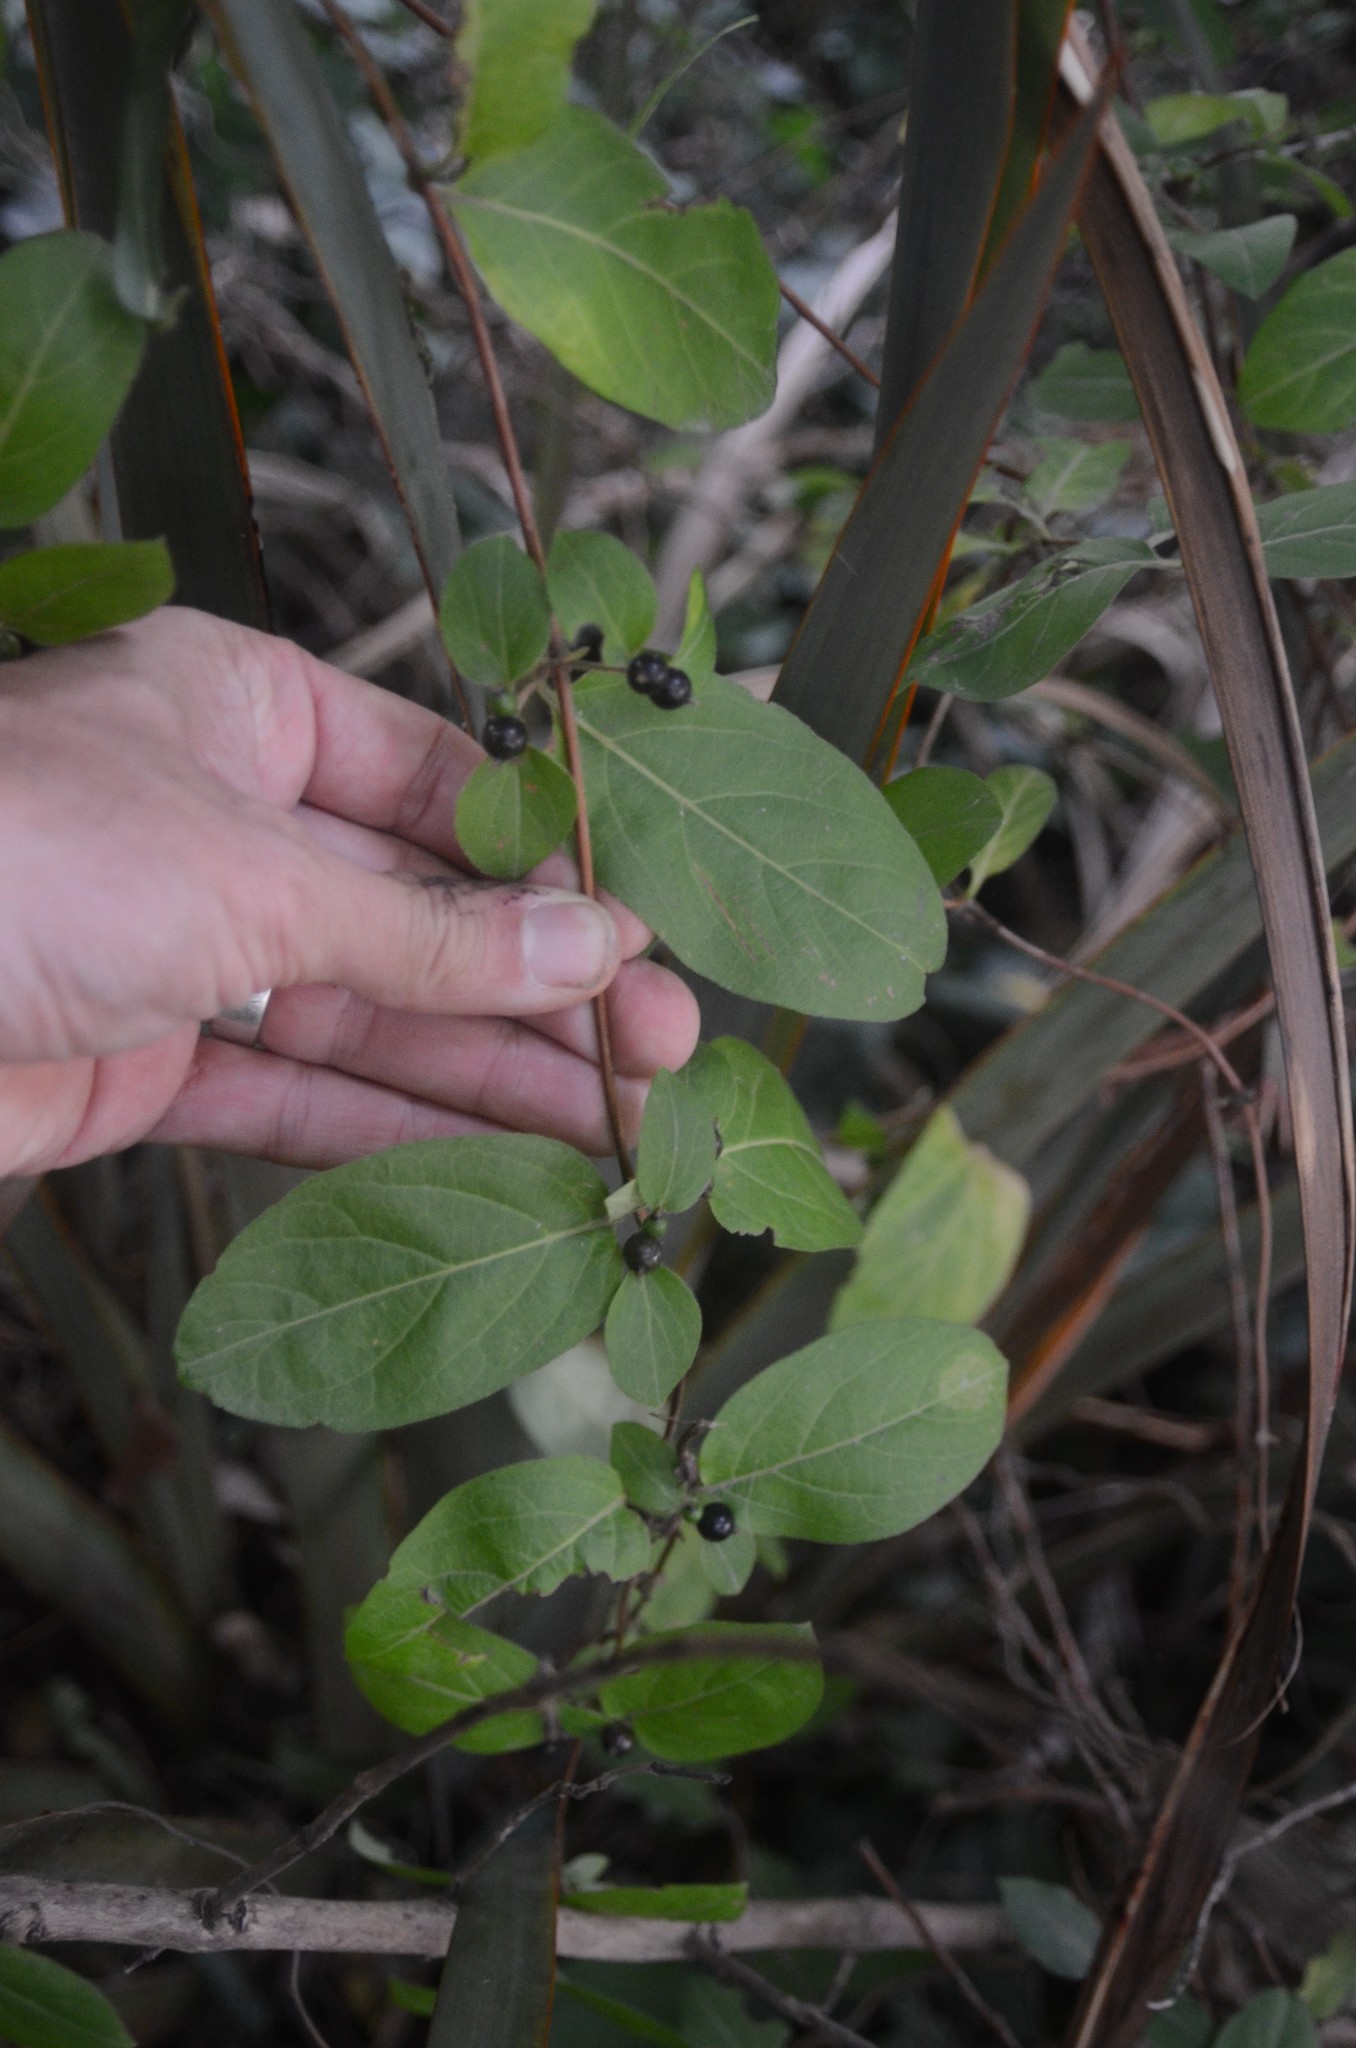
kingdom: Plantae
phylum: Tracheophyta
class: Magnoliopsida
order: Dipsacales
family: Caprifoliaceae
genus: Lonicera
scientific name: Lonicera japonica
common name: Japanese honeysuckle
